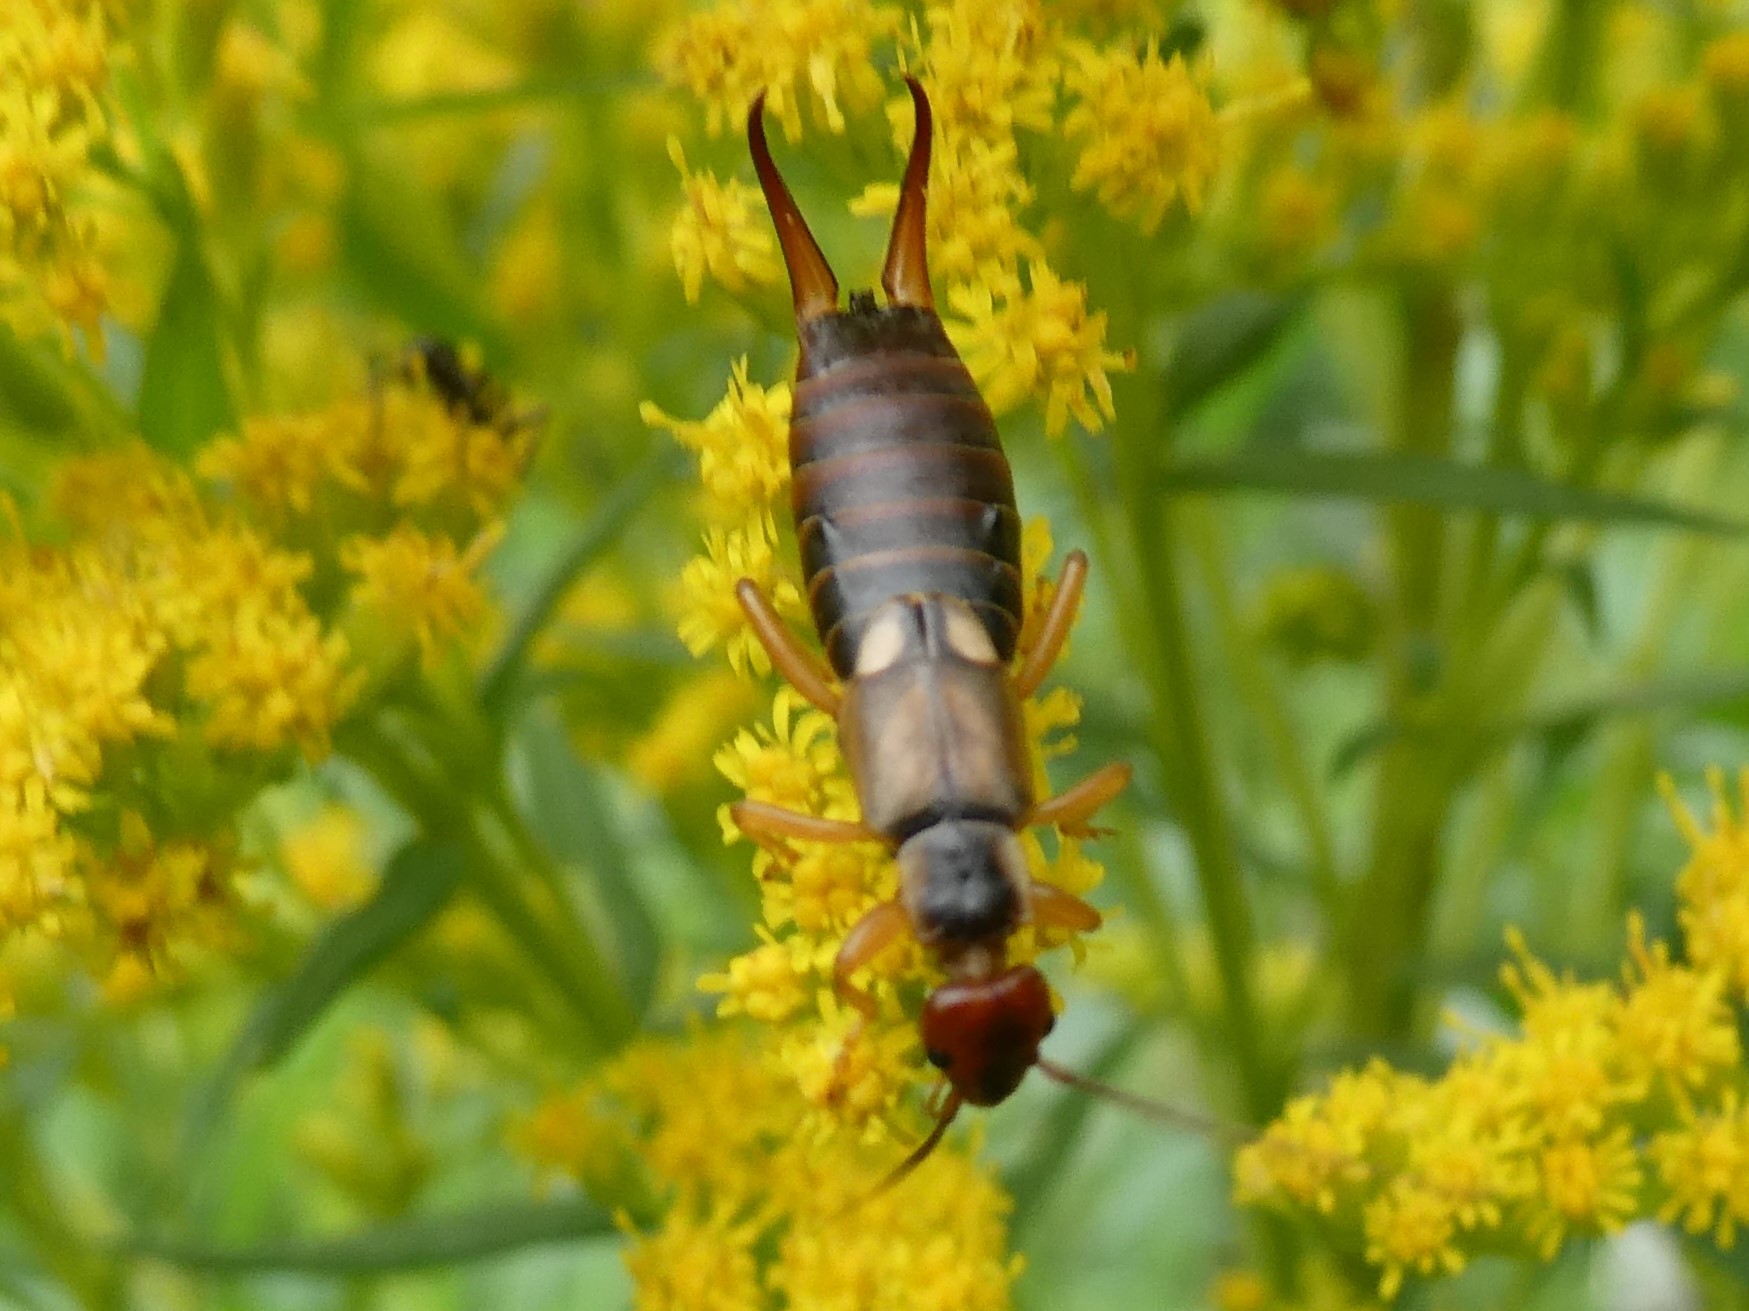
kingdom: Animalia
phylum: Arthropoda
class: Insecta
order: Dermaptera
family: Forficulidae
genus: Forficula
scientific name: Forficula
